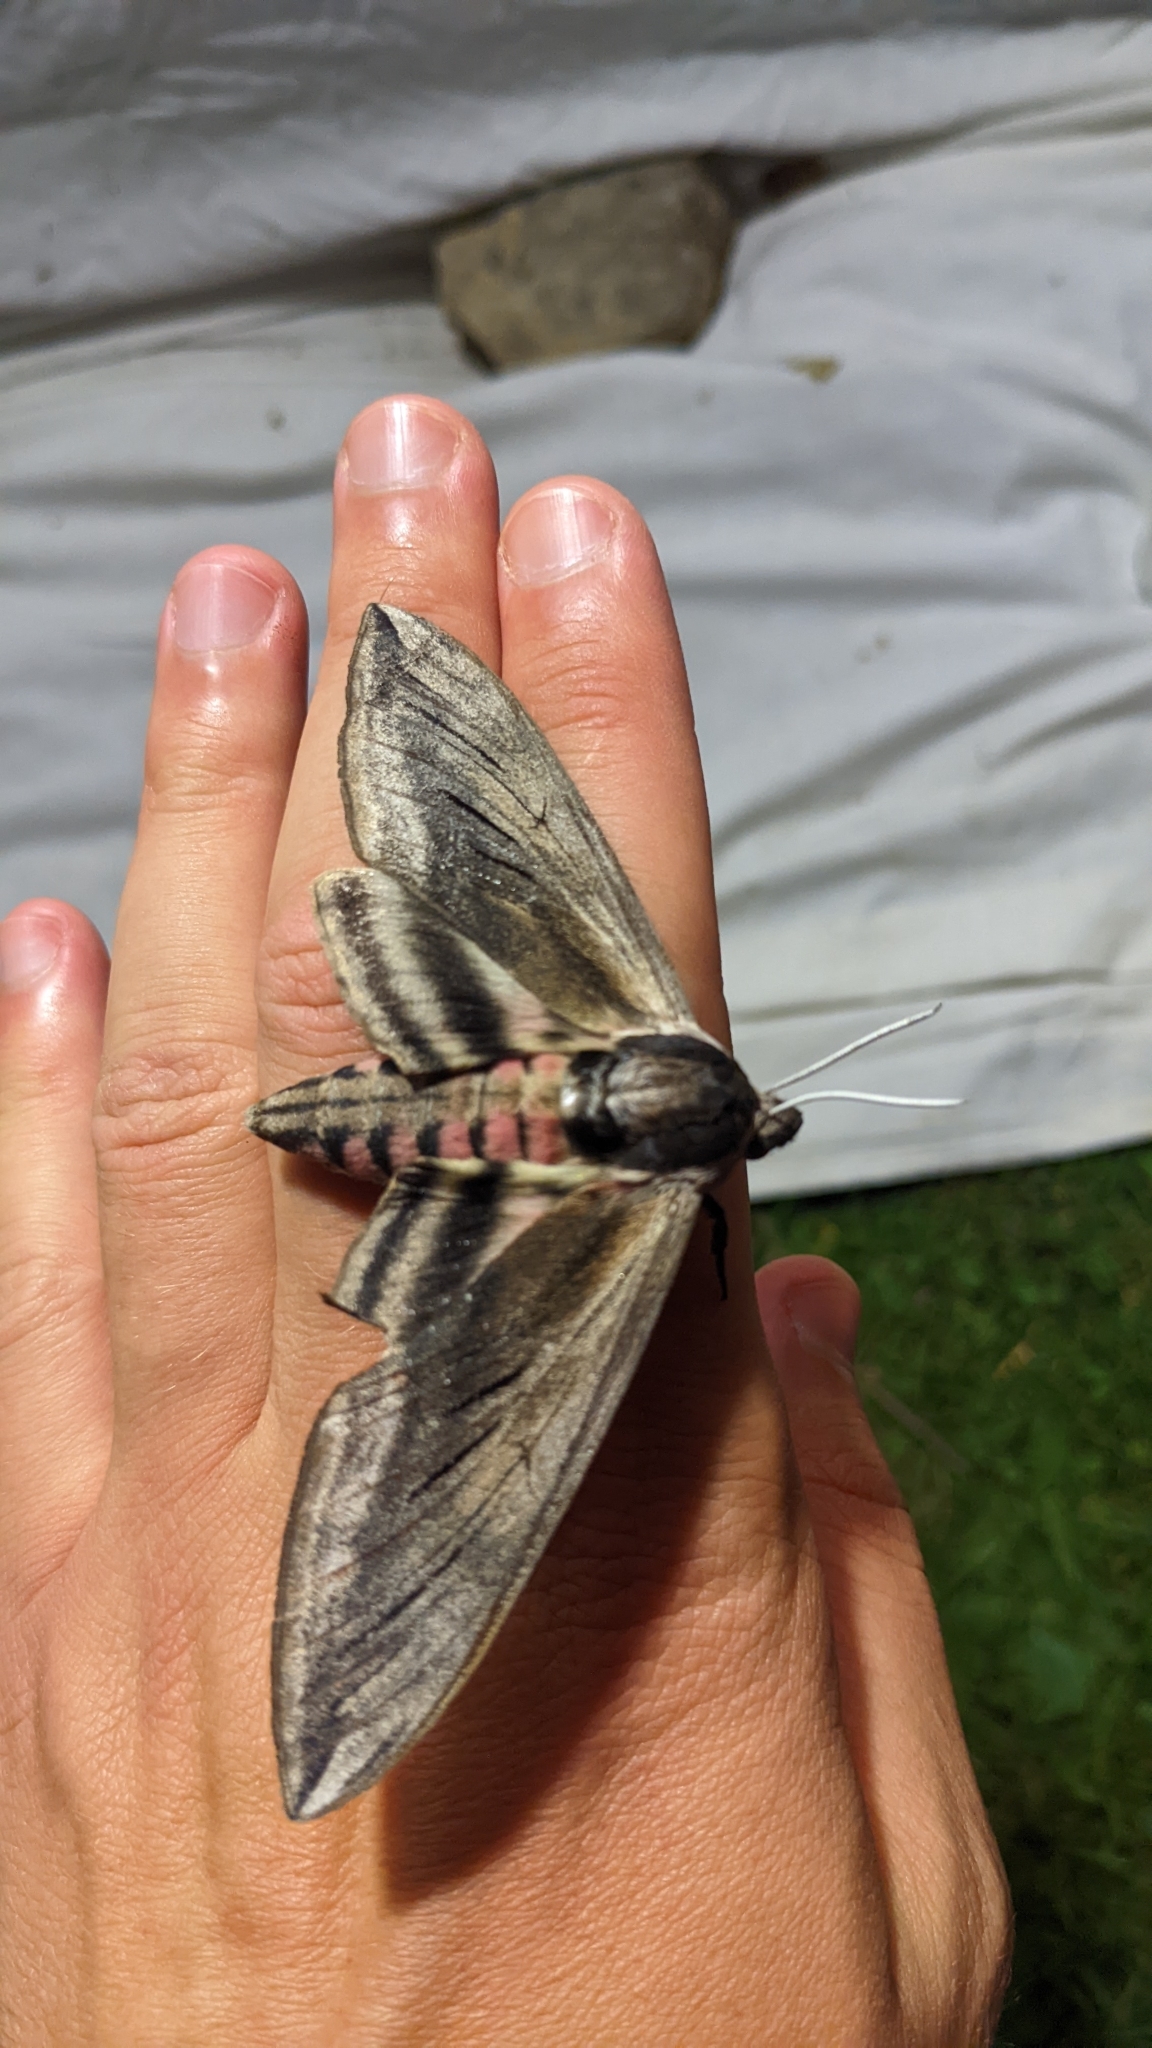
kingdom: Animalia
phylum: Arthropoda
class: Insecta
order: Lepidoptera
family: Sphingidae
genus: Sphinx
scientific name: Sphinx ligustri
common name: Privet hawk-moth
